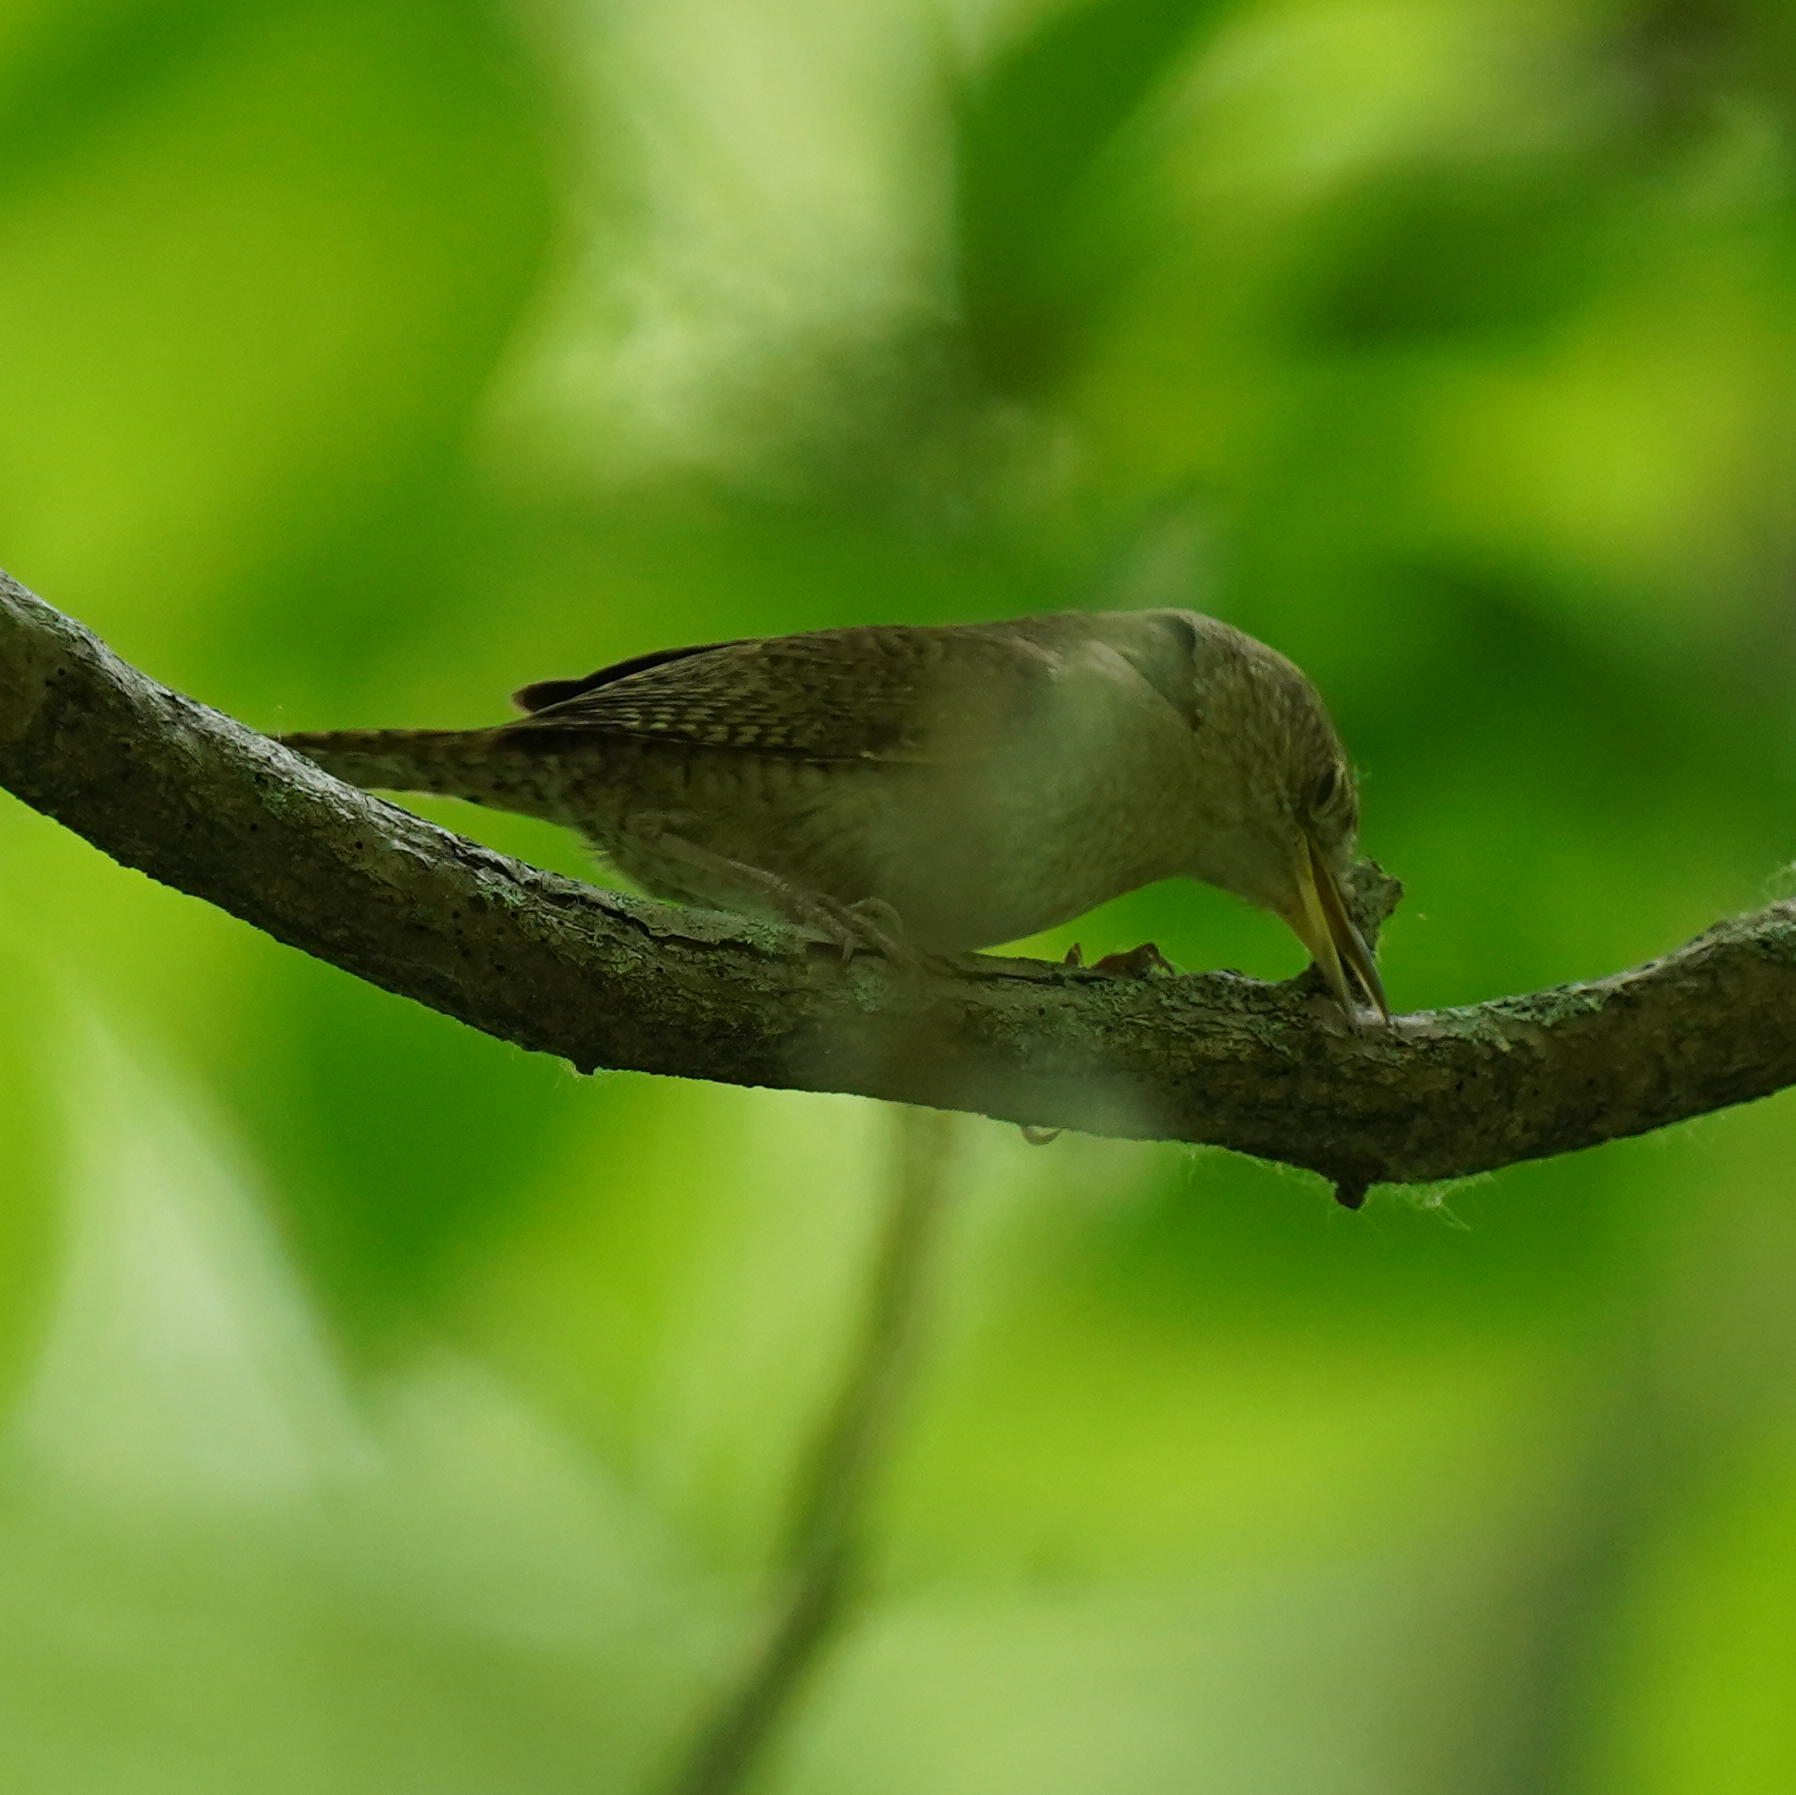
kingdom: Animalia
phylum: Chordata
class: Aves
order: Passeriformes
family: Troglodytidae
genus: Troglodytes
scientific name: Troglodytes aedon
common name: House wren
